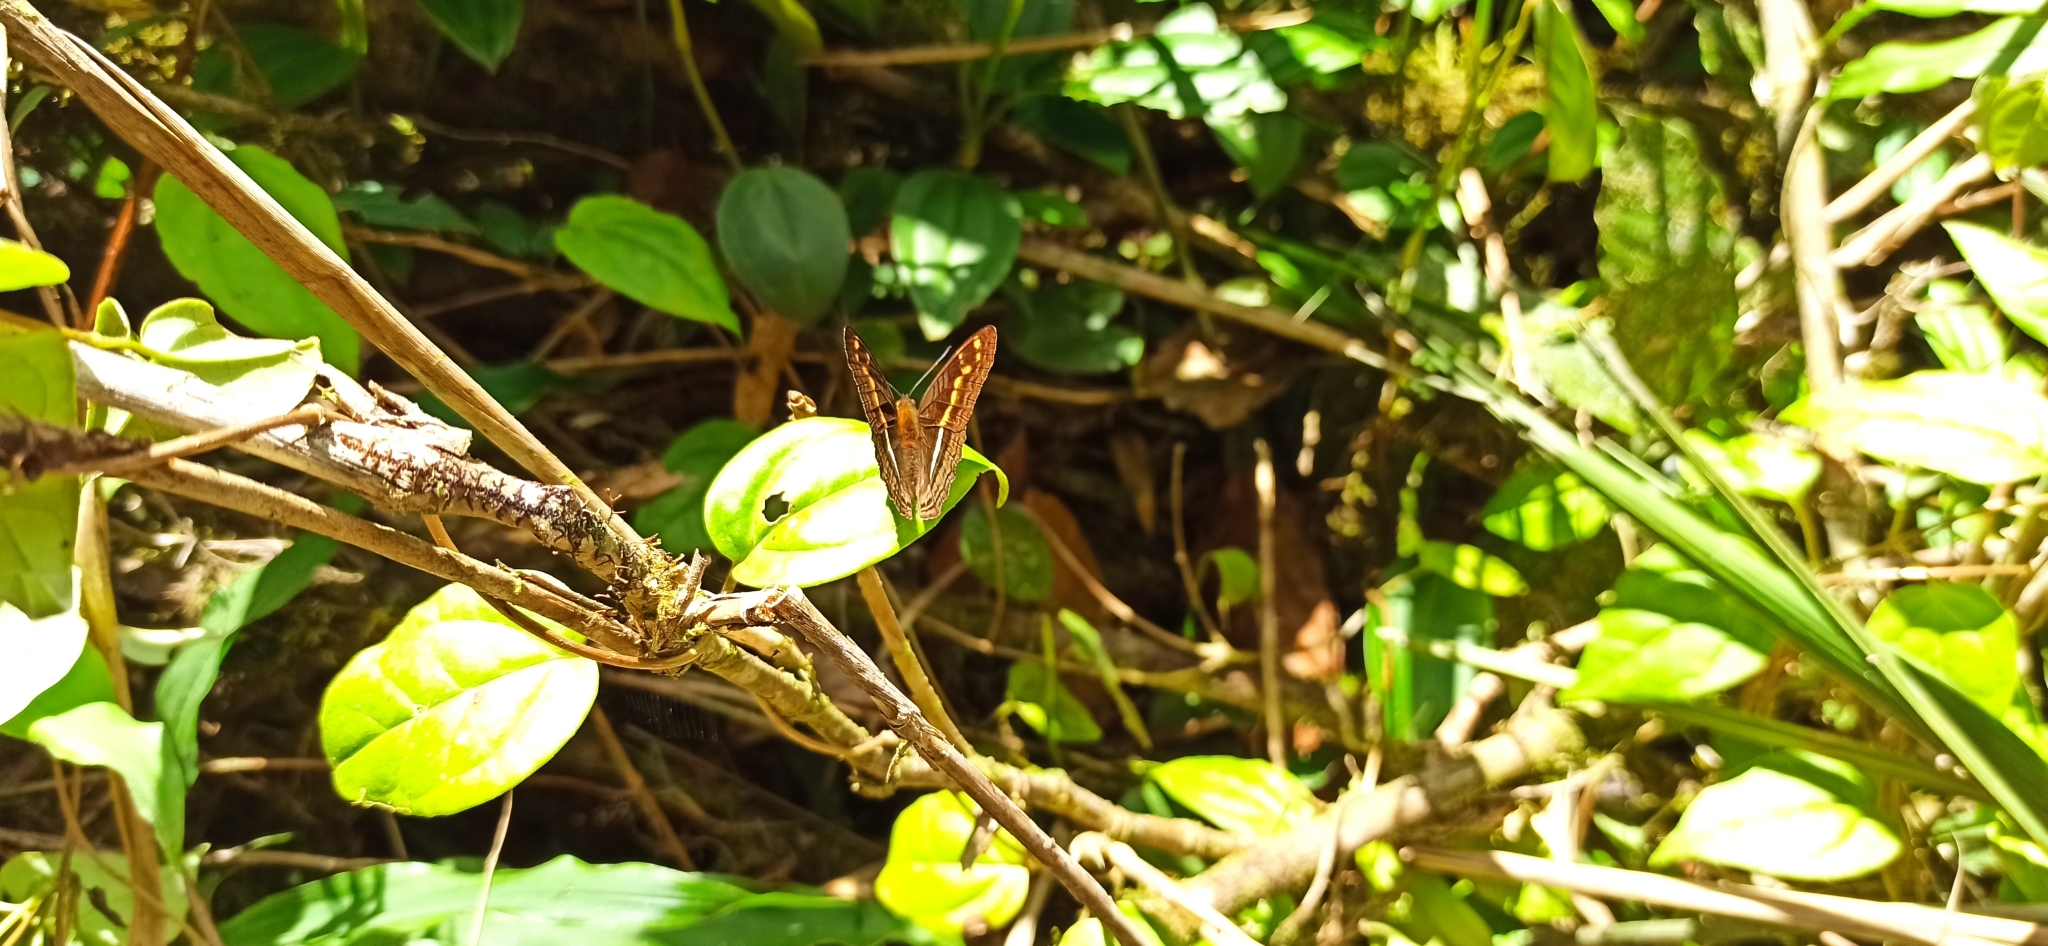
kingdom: Animalia
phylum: Arthropoda
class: Insecta
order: Lepidoptera
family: Nymphalidae
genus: Limenitis
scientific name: Limenitis olynthia
